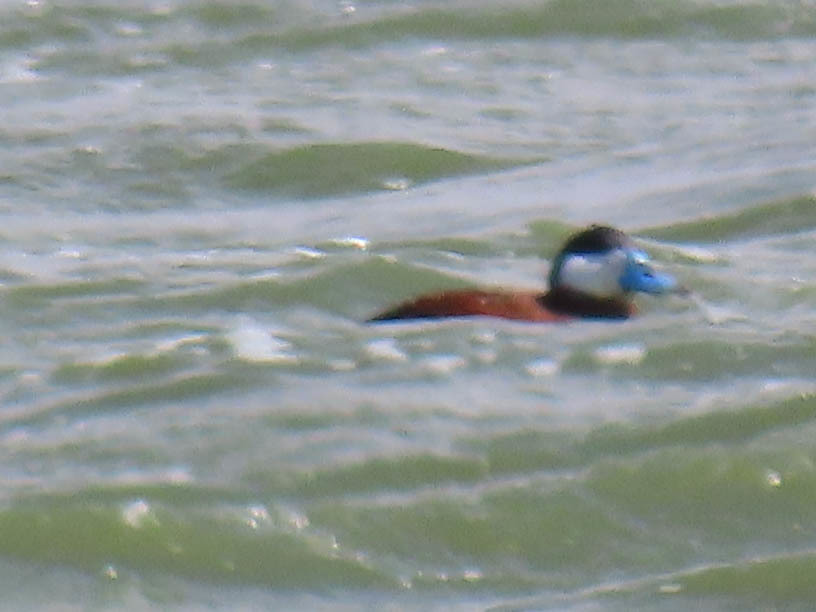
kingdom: Animalia
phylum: Chordata
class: Aves
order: Anseriformes
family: Anatidae
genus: Oxyura
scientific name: Oxyura jamaicensis
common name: Ruddy duck
